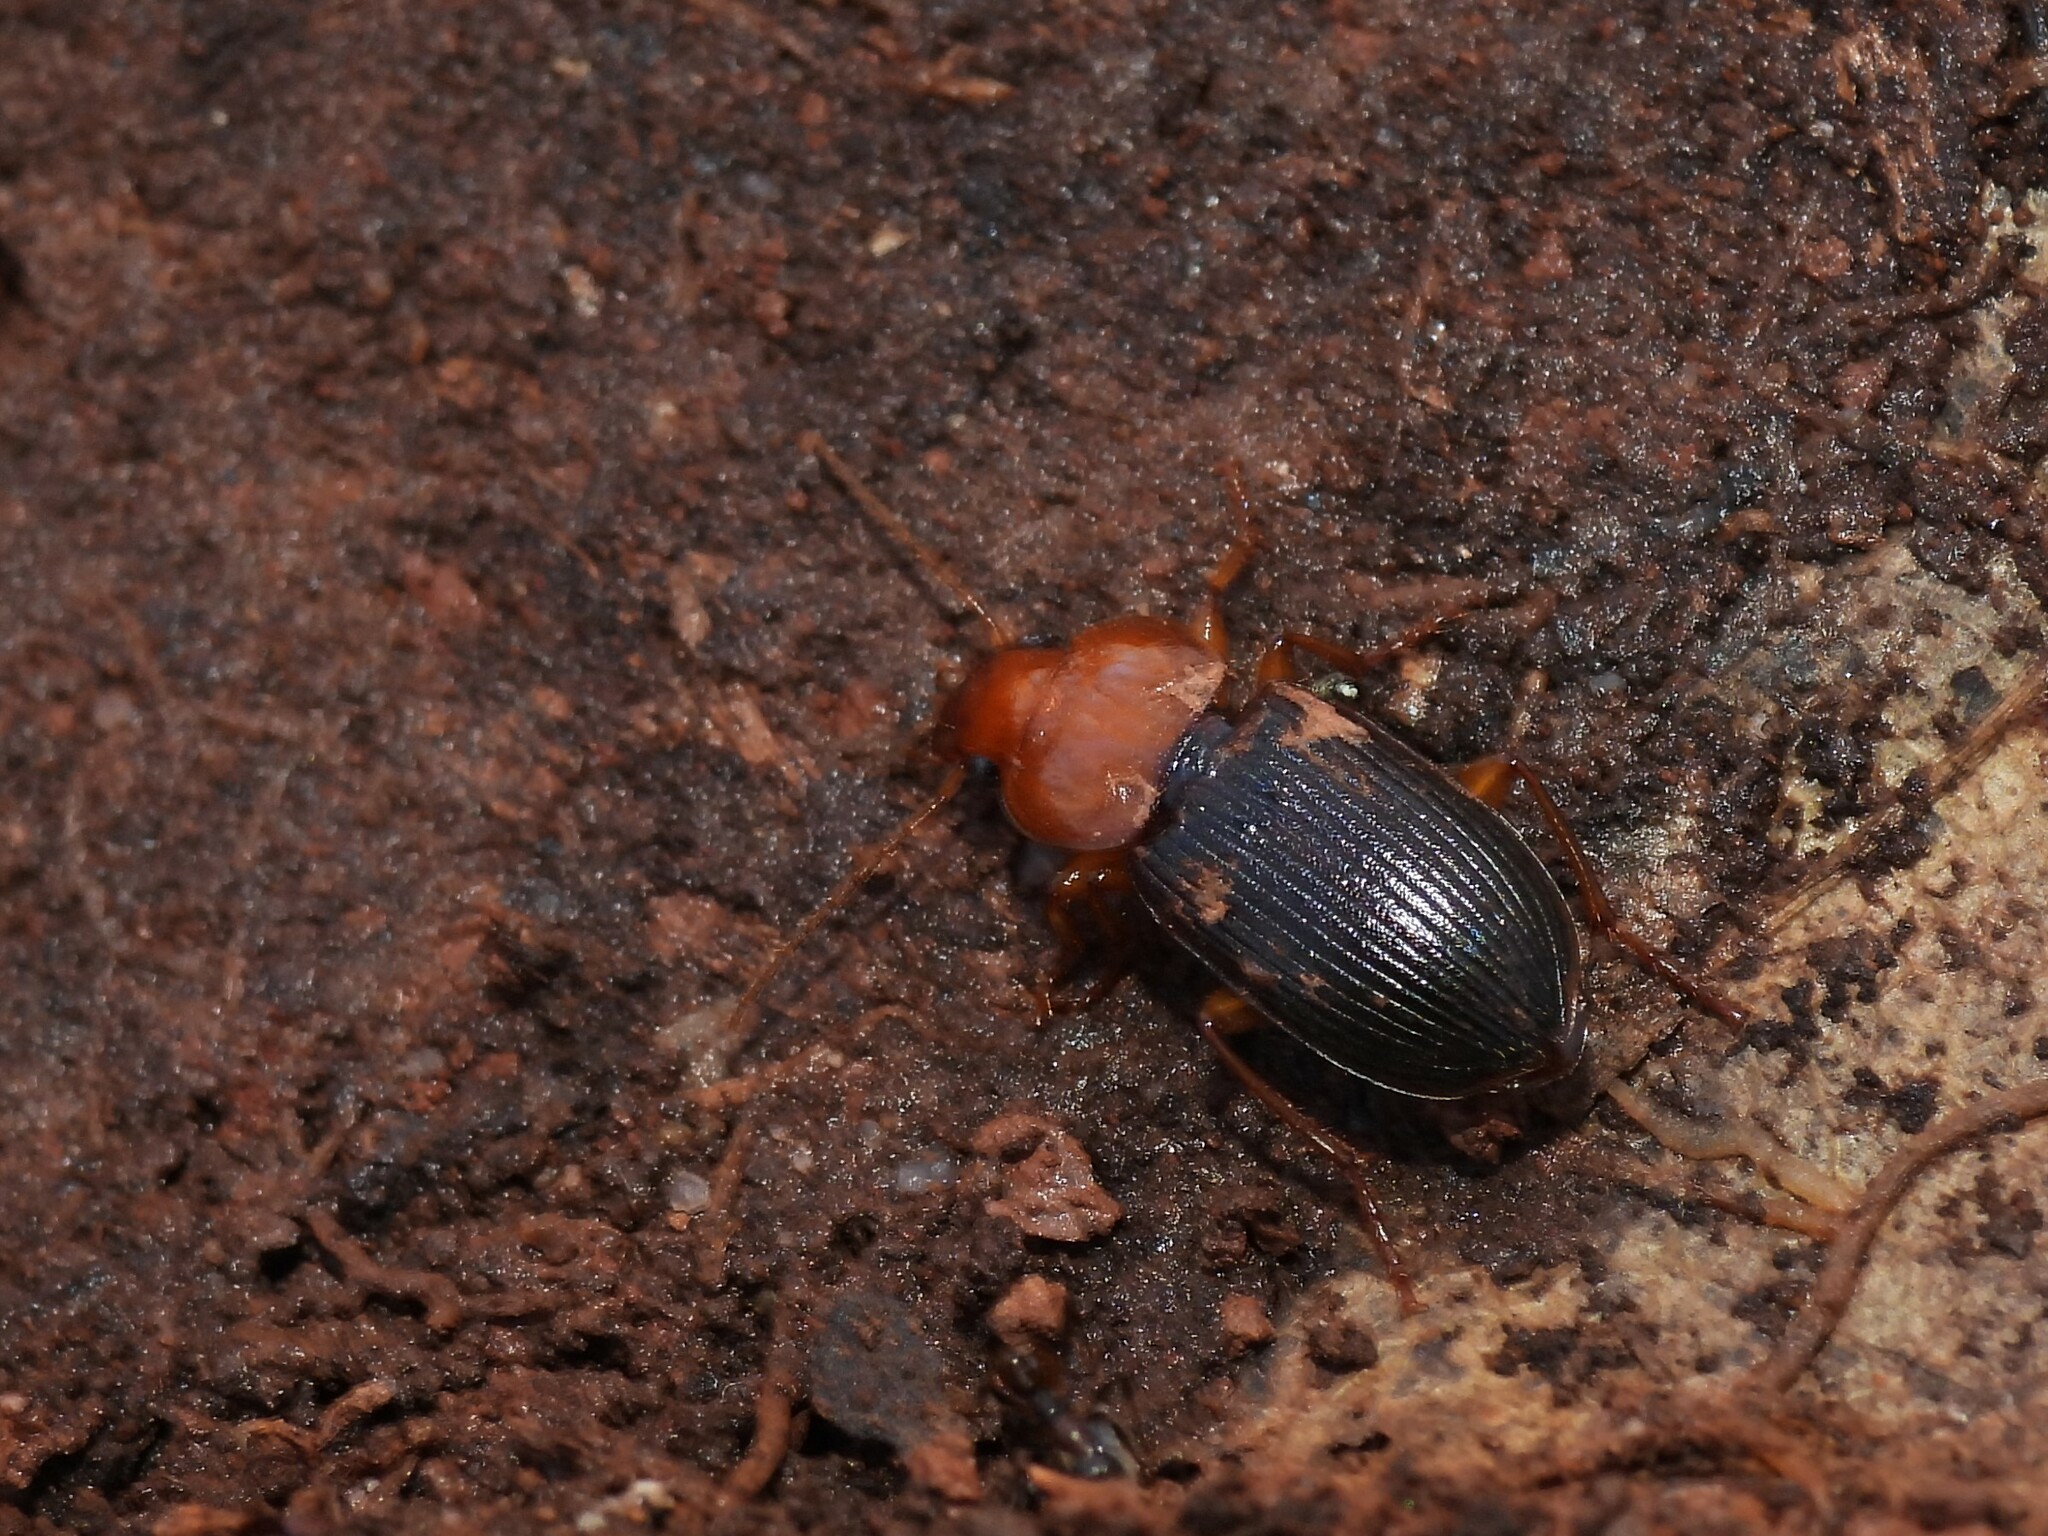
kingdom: Animalia
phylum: Arthropoda
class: Insecta
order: Coleoptera
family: Carabidae
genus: Amphasia
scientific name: Amphasia interstitialis
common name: Red-headed ground beetle
